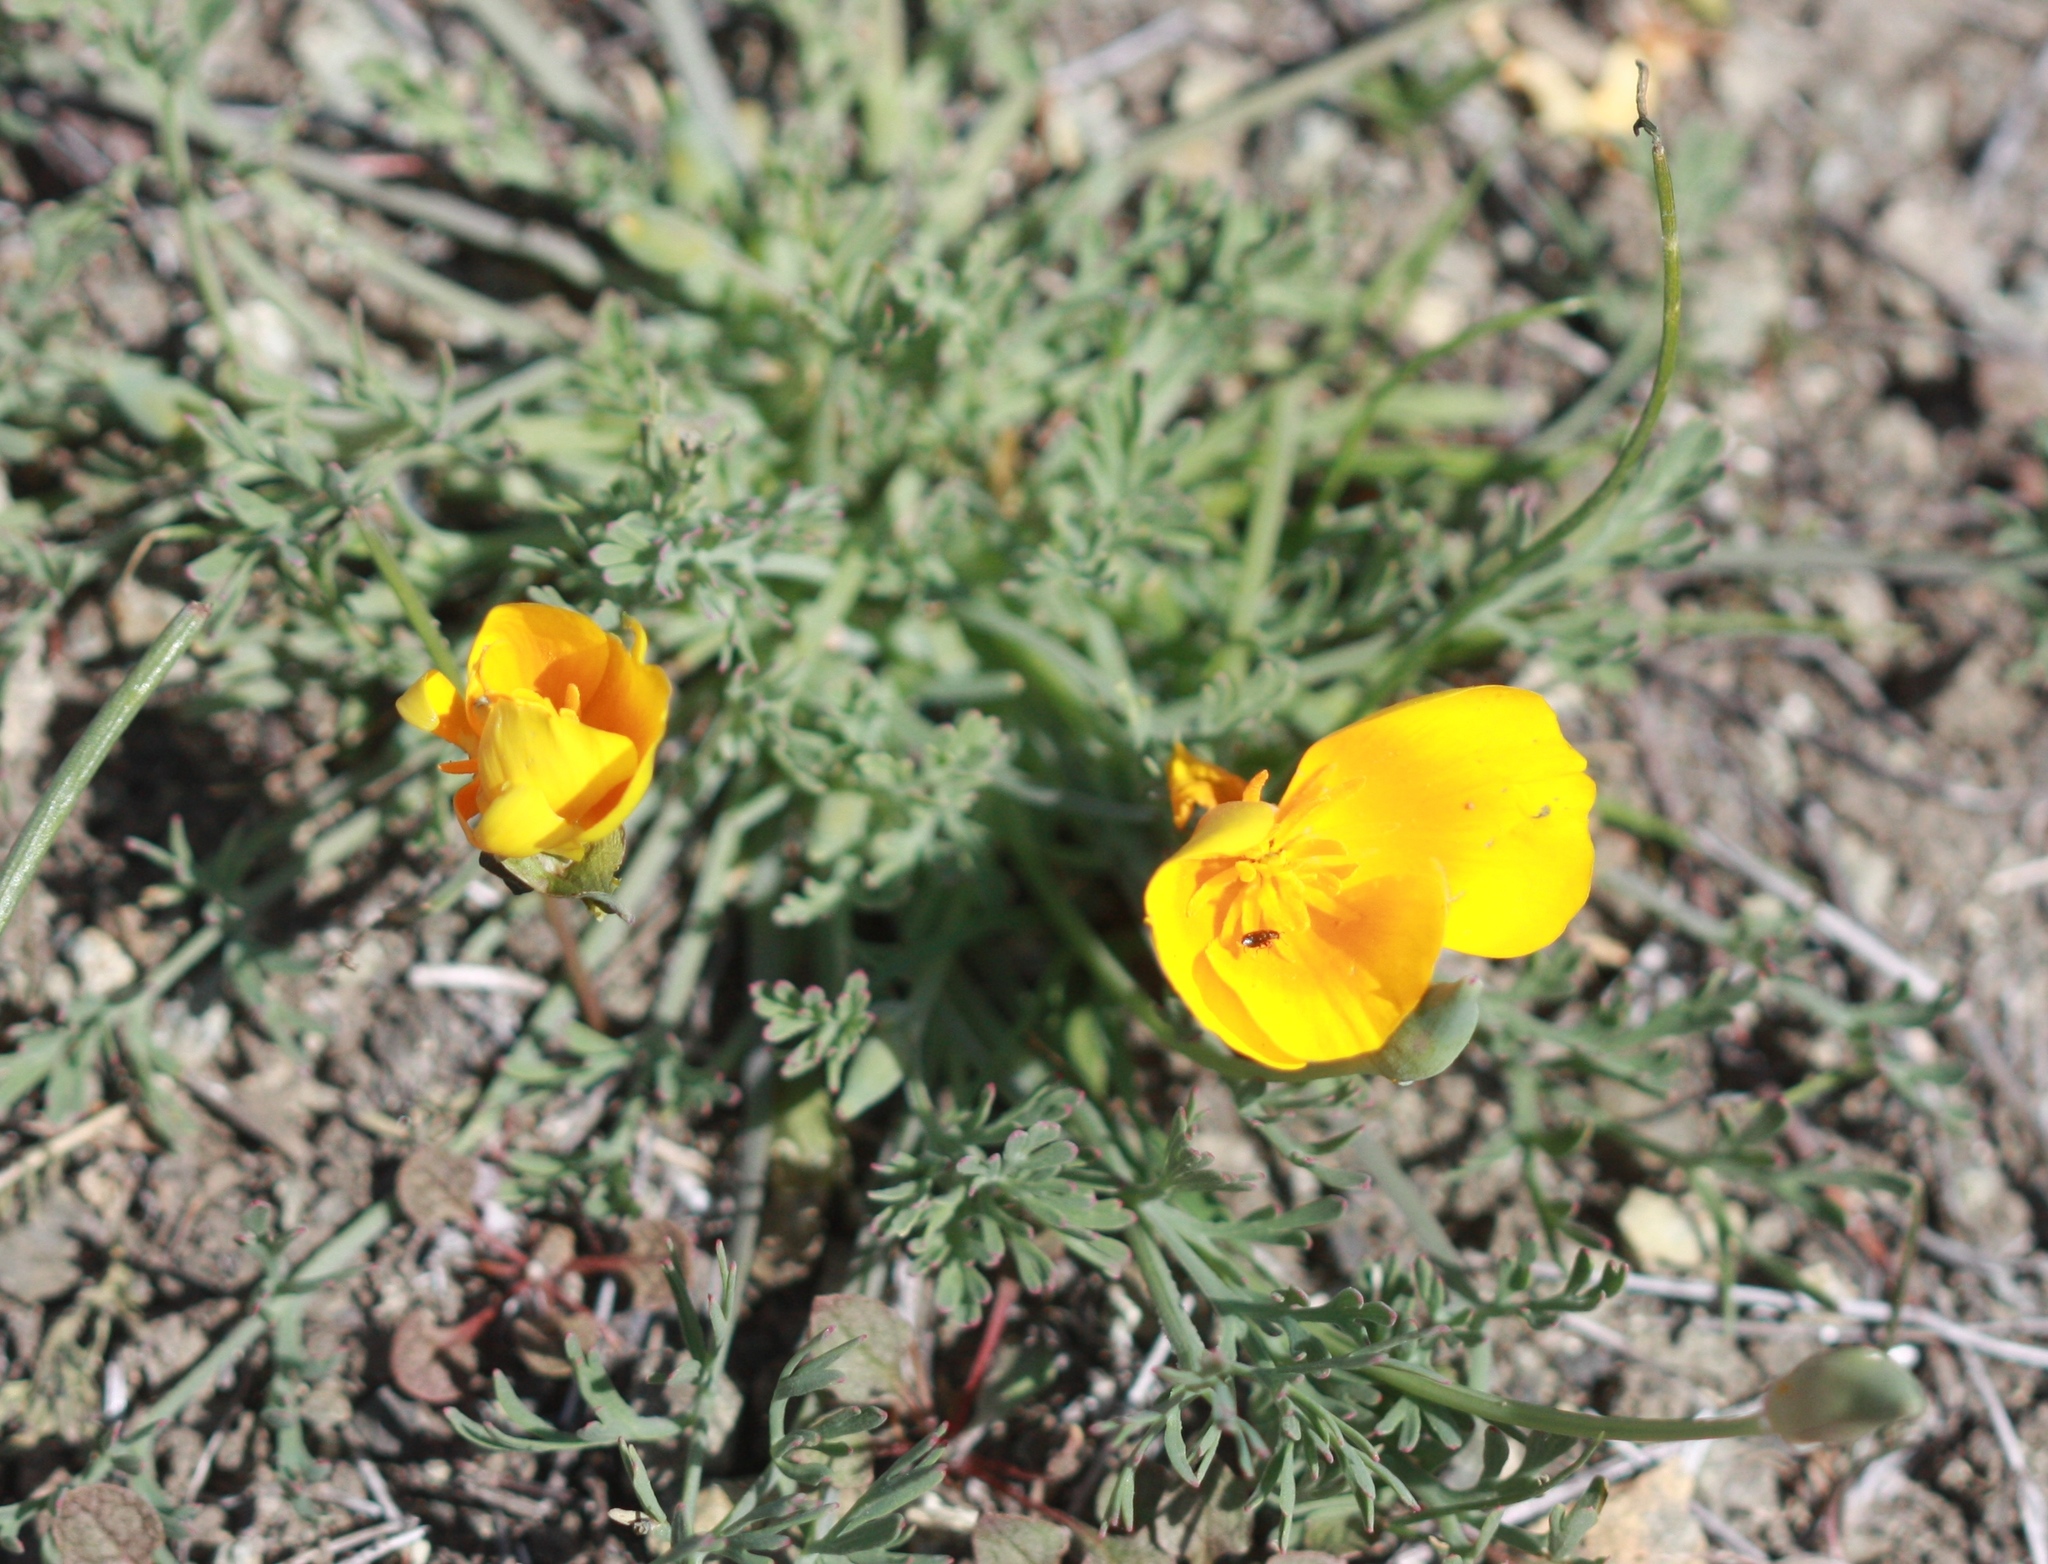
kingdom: Plantae
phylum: Tracheophyta
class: Magnoliopsida
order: Ranunculales
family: Papaveraceae
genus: Eschscholzia
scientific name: Eschscholzia californica
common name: California poppy
